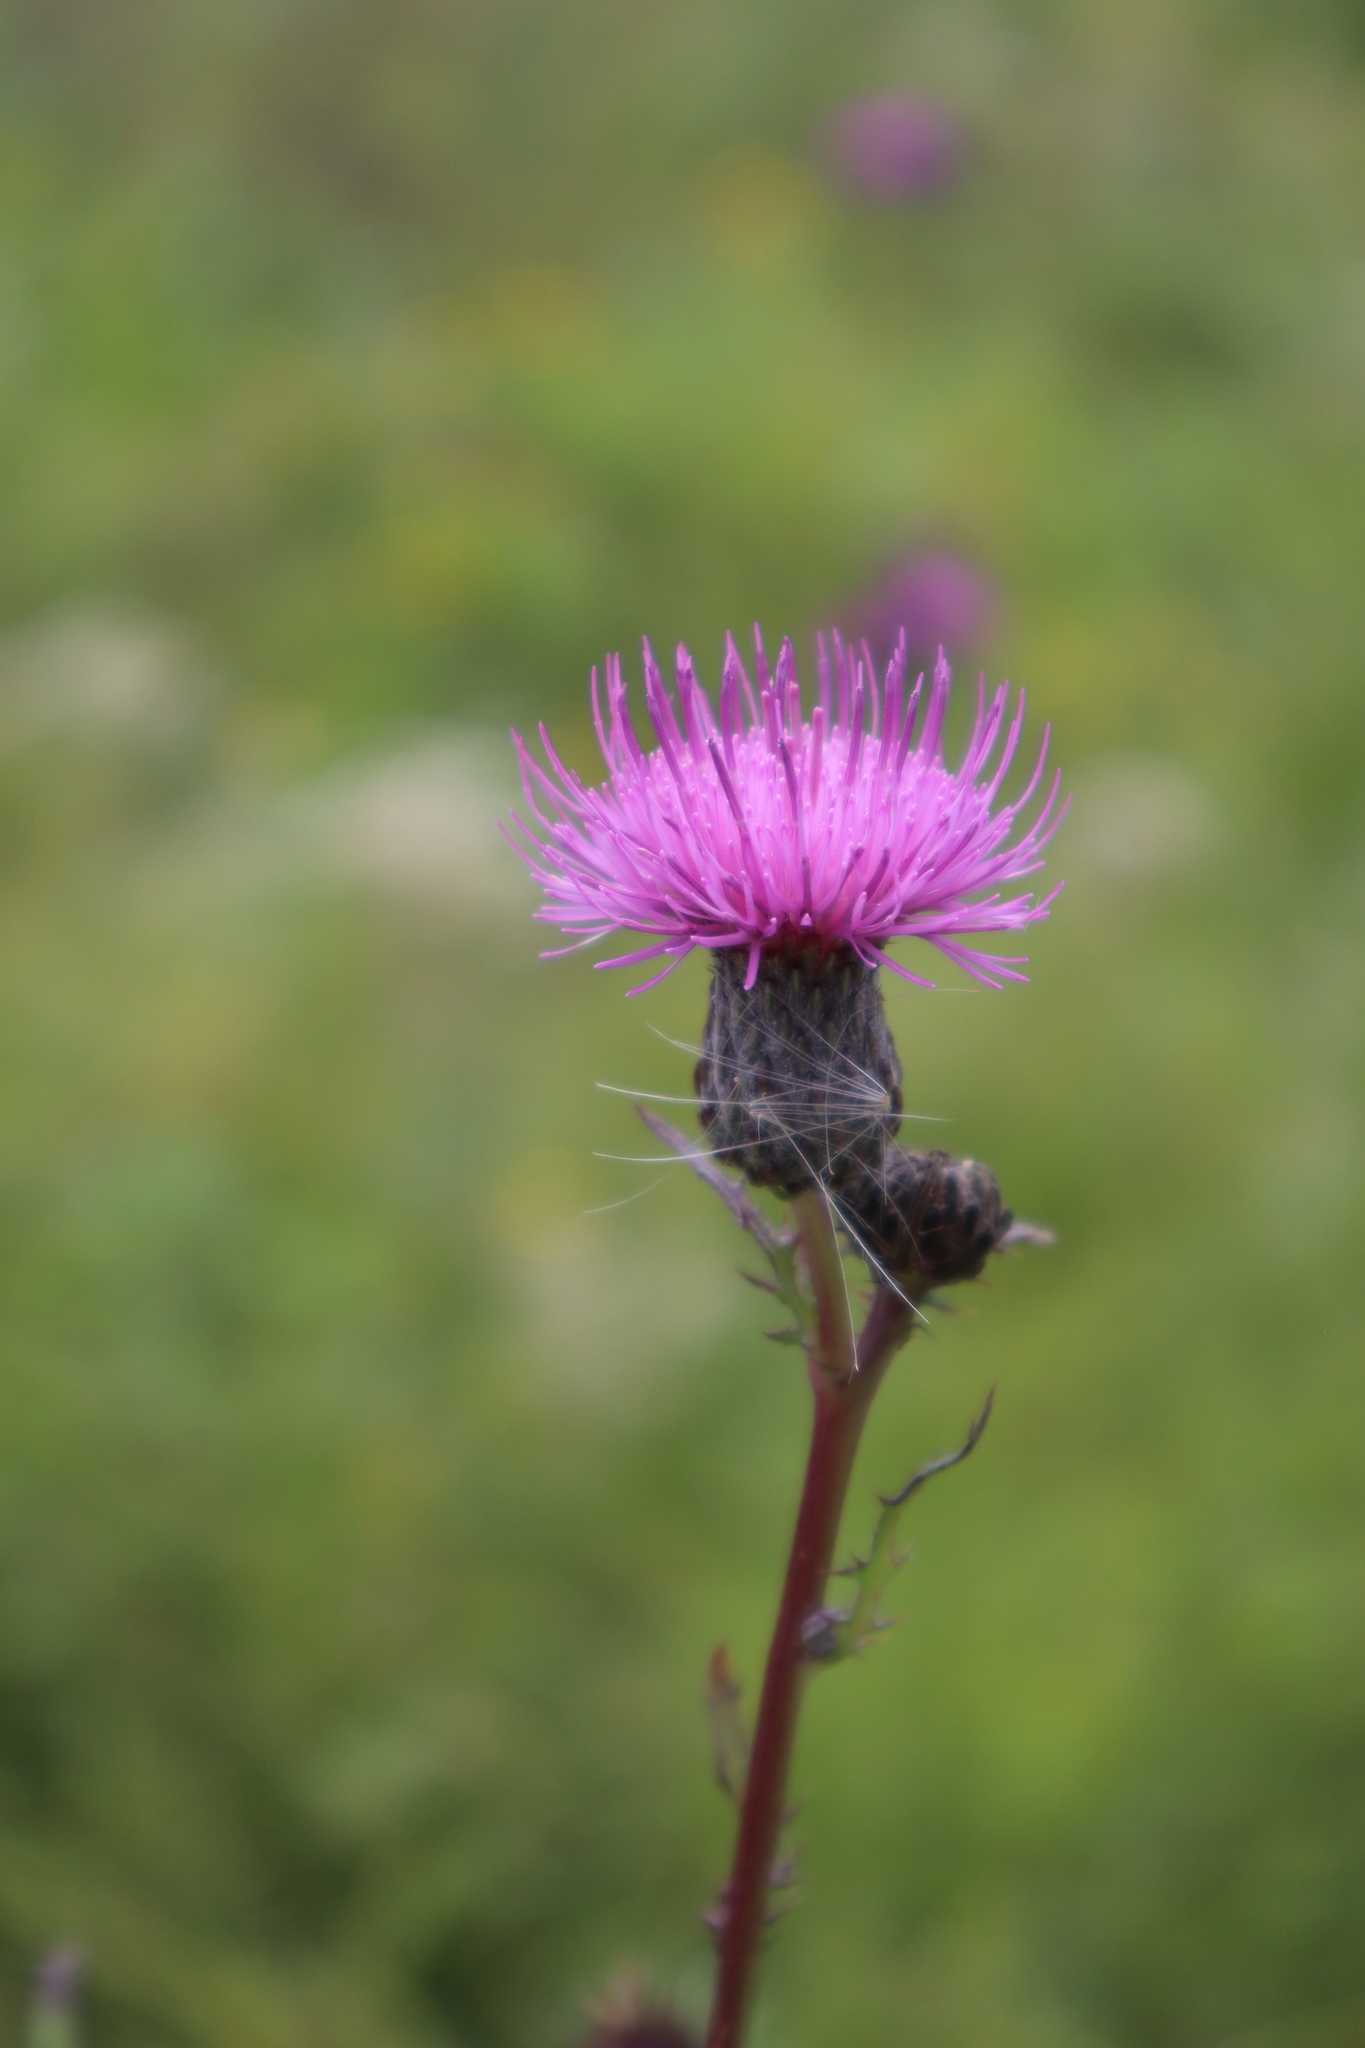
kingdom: Plantae
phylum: Tracheophyta
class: Magnoliopsida
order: Asterales
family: Asteraceae
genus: Cirsium
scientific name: Cirsium muticum
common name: Dunce-nettle
